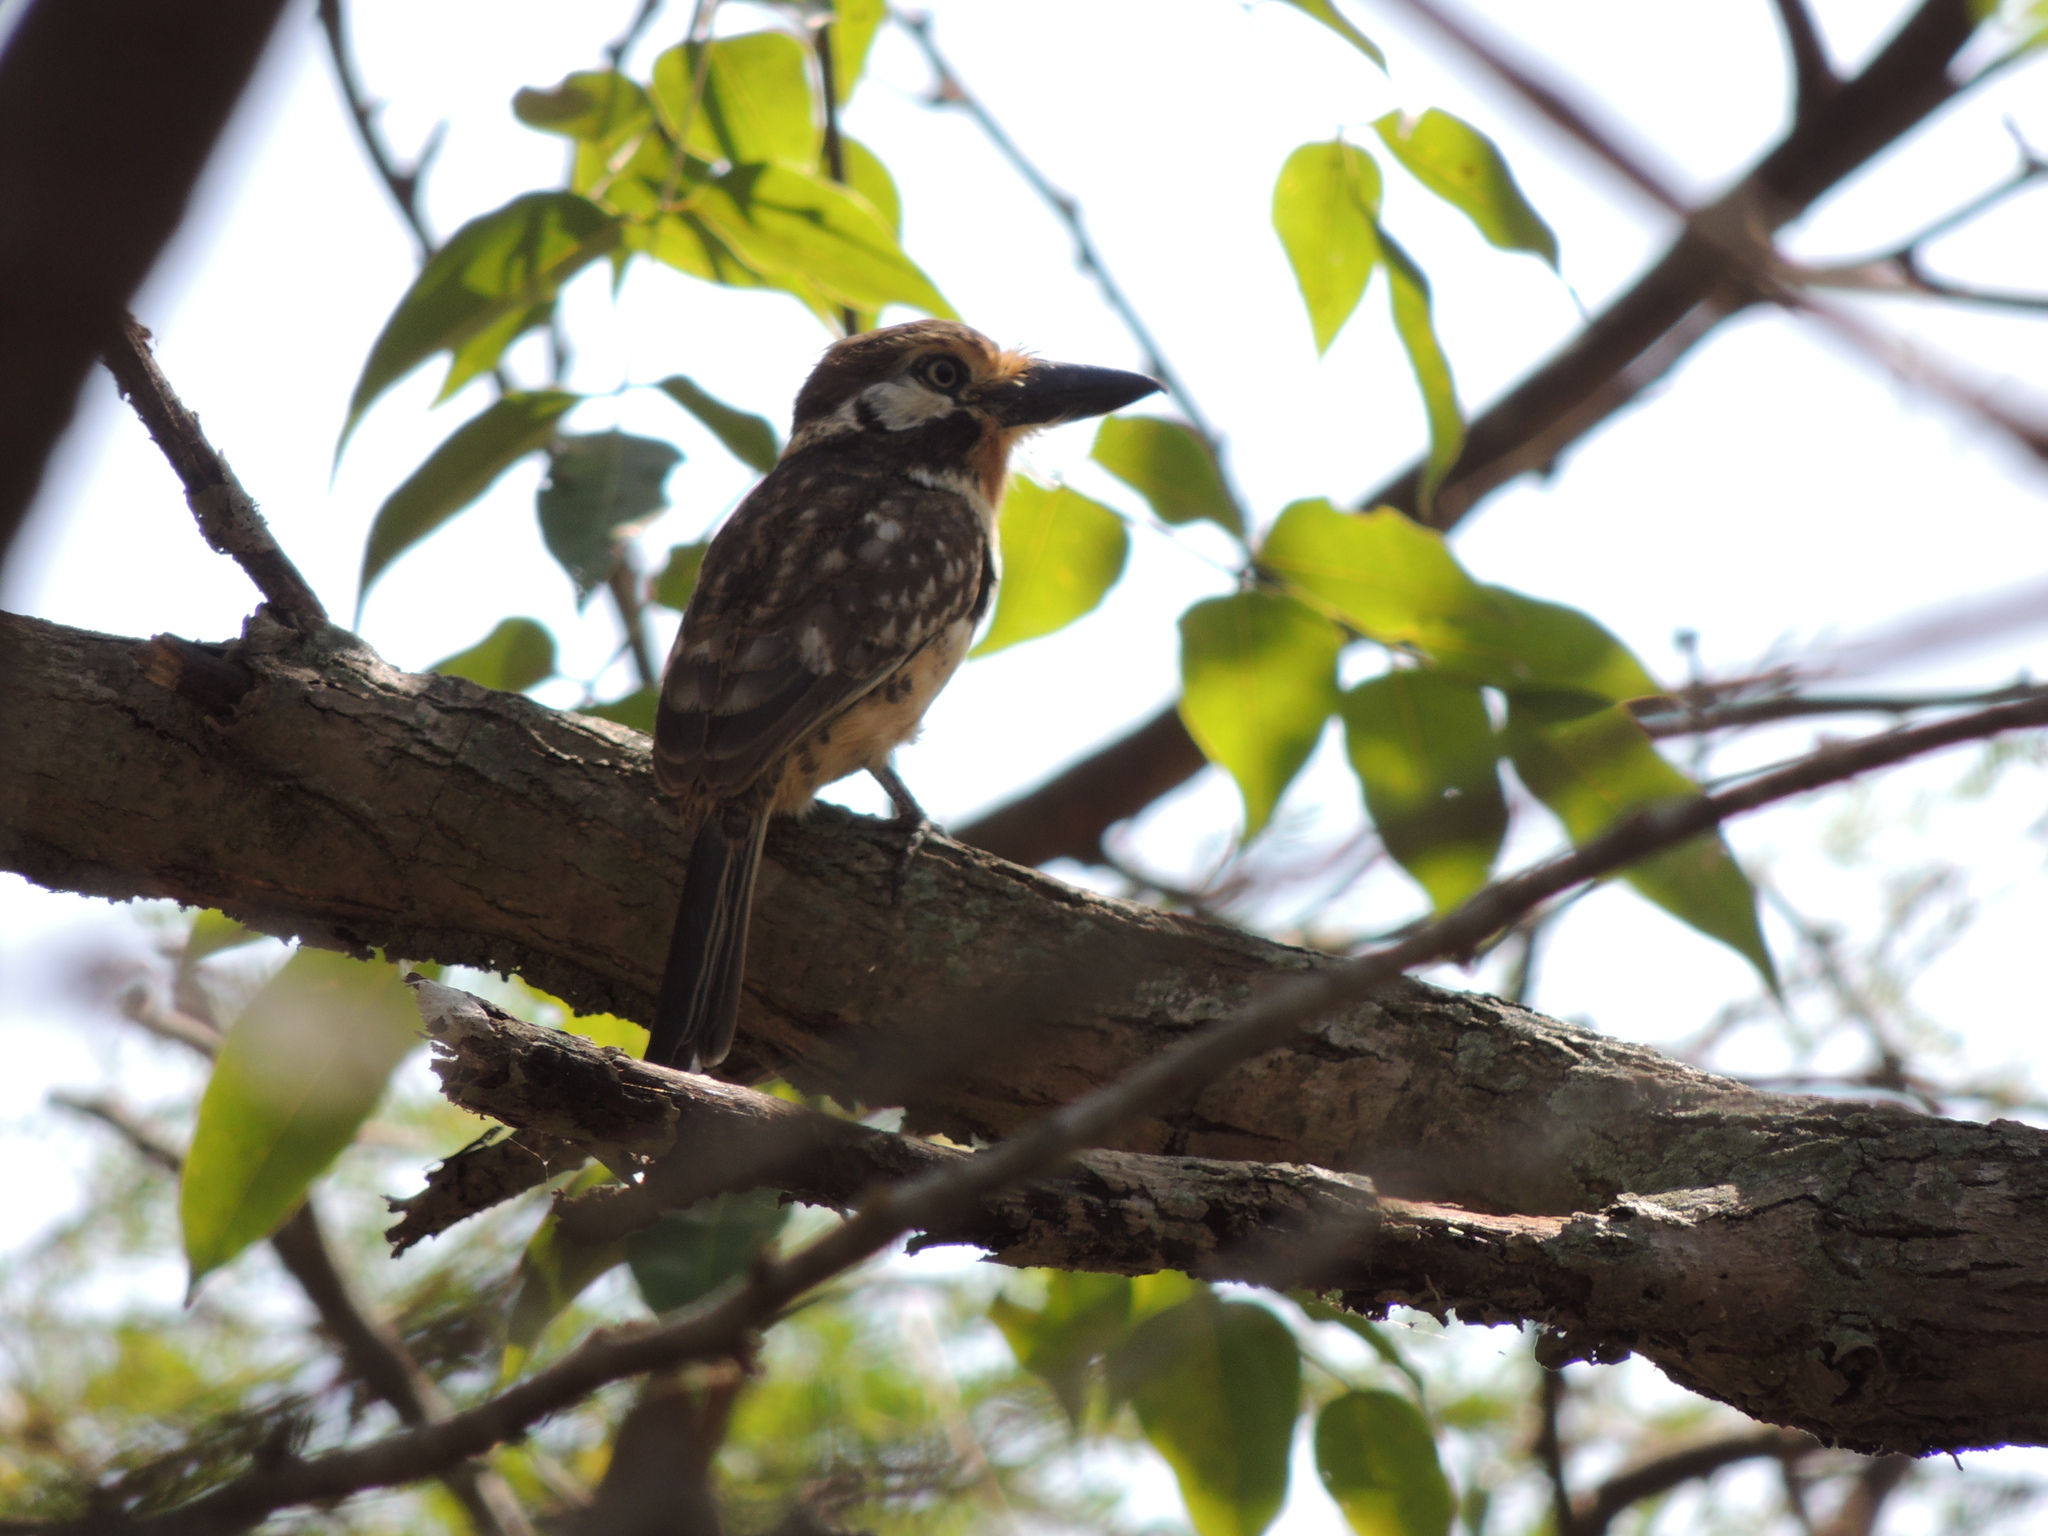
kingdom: Animalia
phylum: Chordata
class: Aves
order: Piciformes
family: Bucconidae
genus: Hypnelus
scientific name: Hypnelus ruficollis
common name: Russet-throated puffbird
